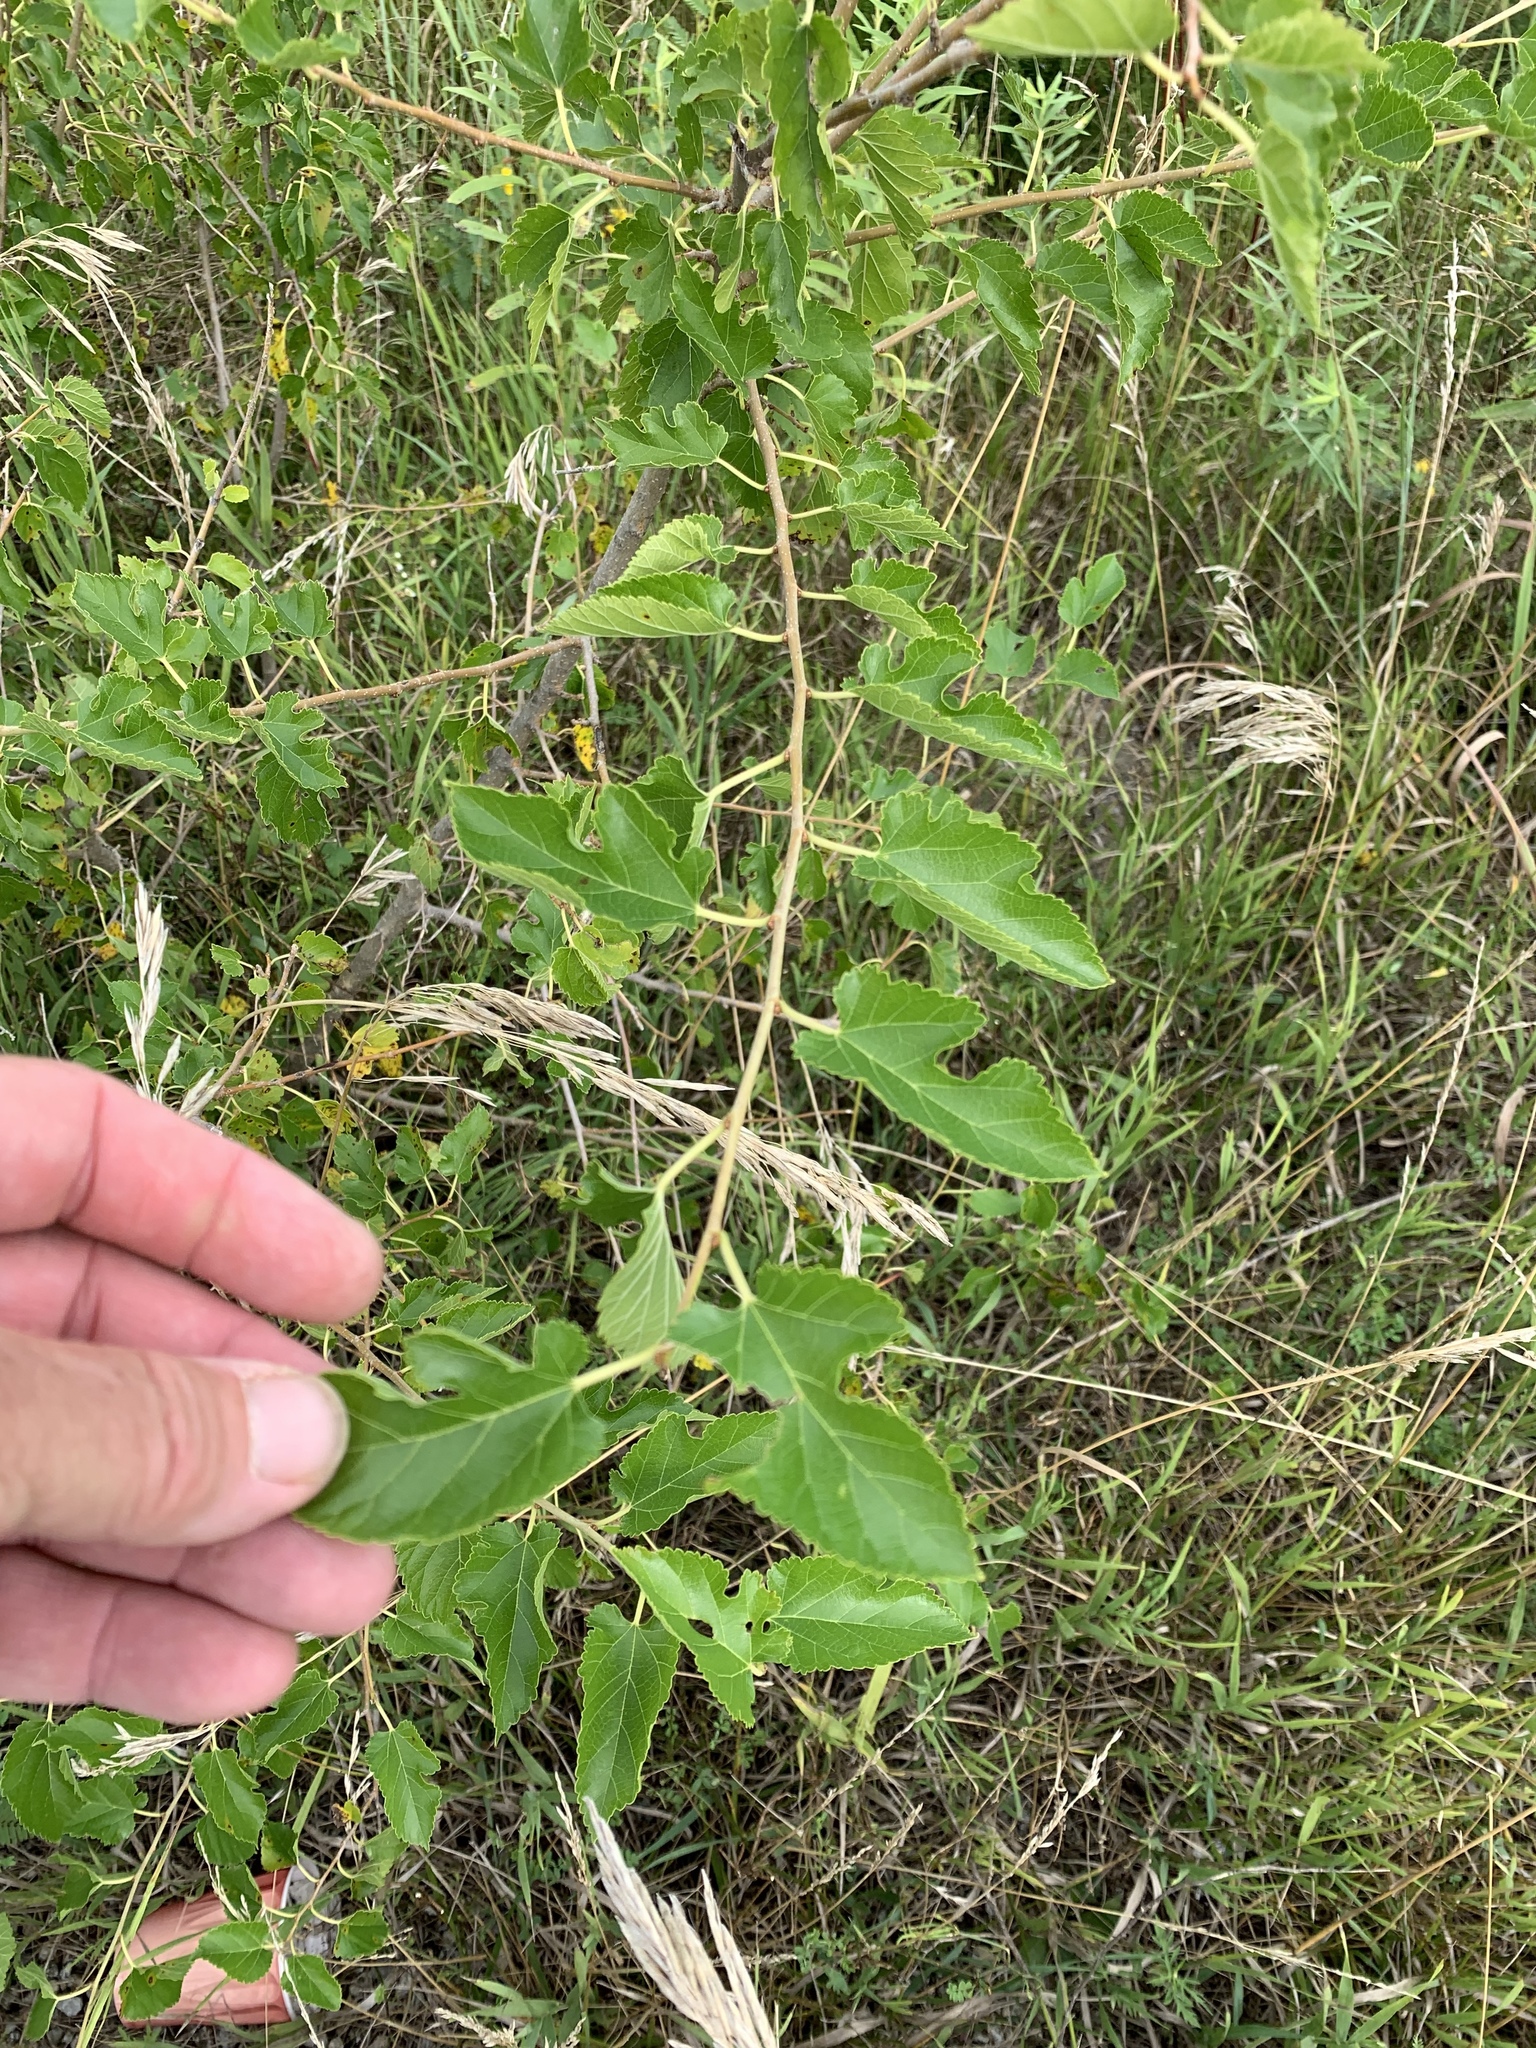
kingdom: Plantae
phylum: Tracheophyta
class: Magnoliopsida
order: Rosales
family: Moraceae
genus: Morus
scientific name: Morus alba
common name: White mulberry
